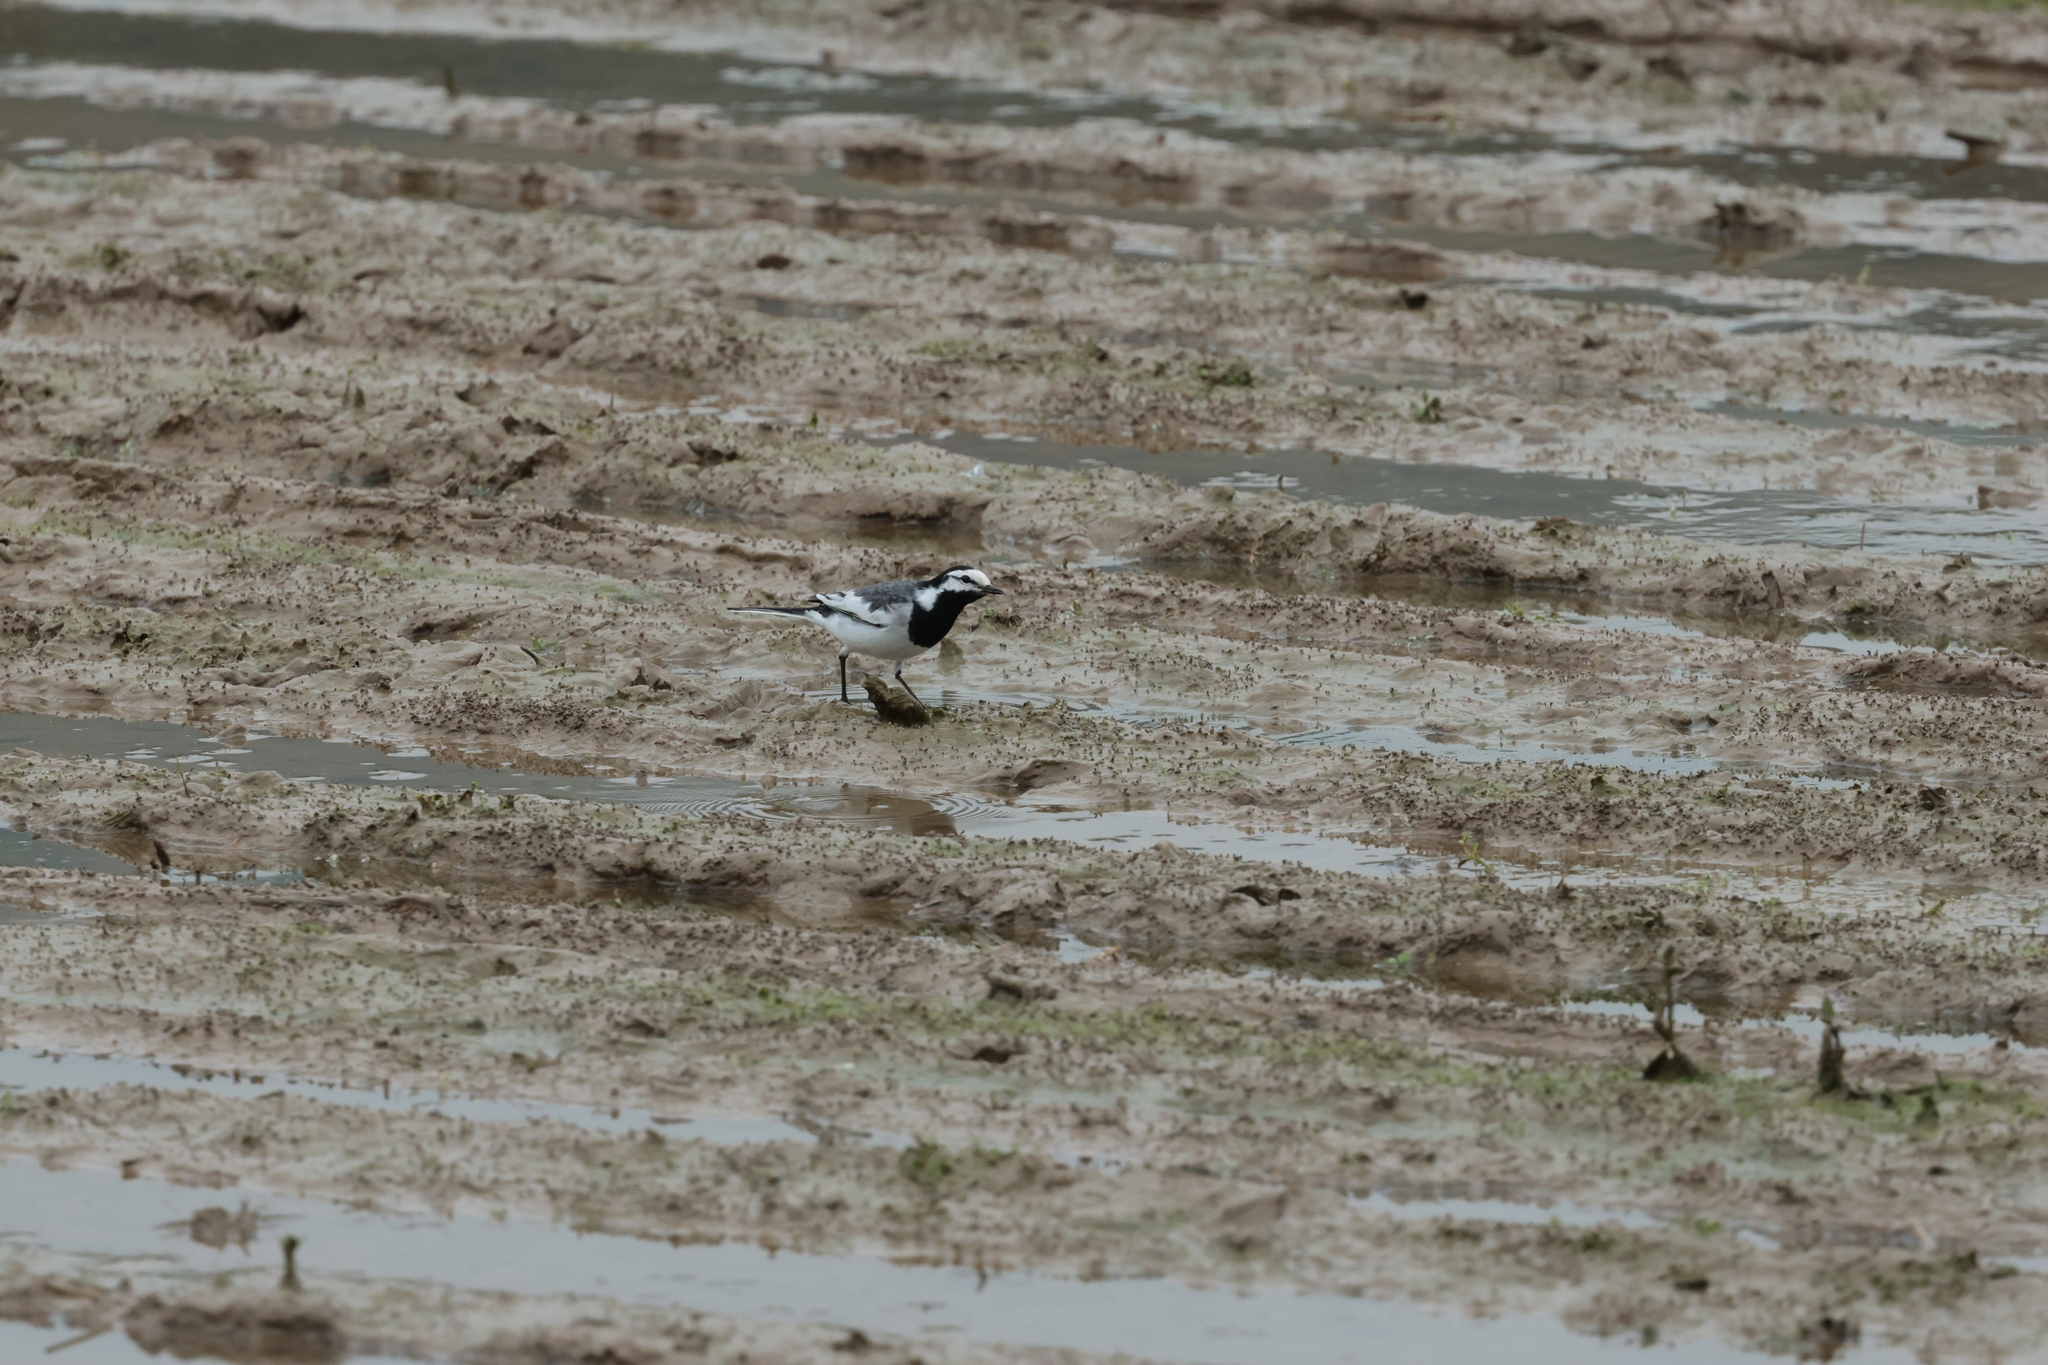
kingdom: Animalia
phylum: Chordata
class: Aves
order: Passeriformes
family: Motacillidae
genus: Motacilla
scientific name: Motacilla alba
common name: White wagtail
